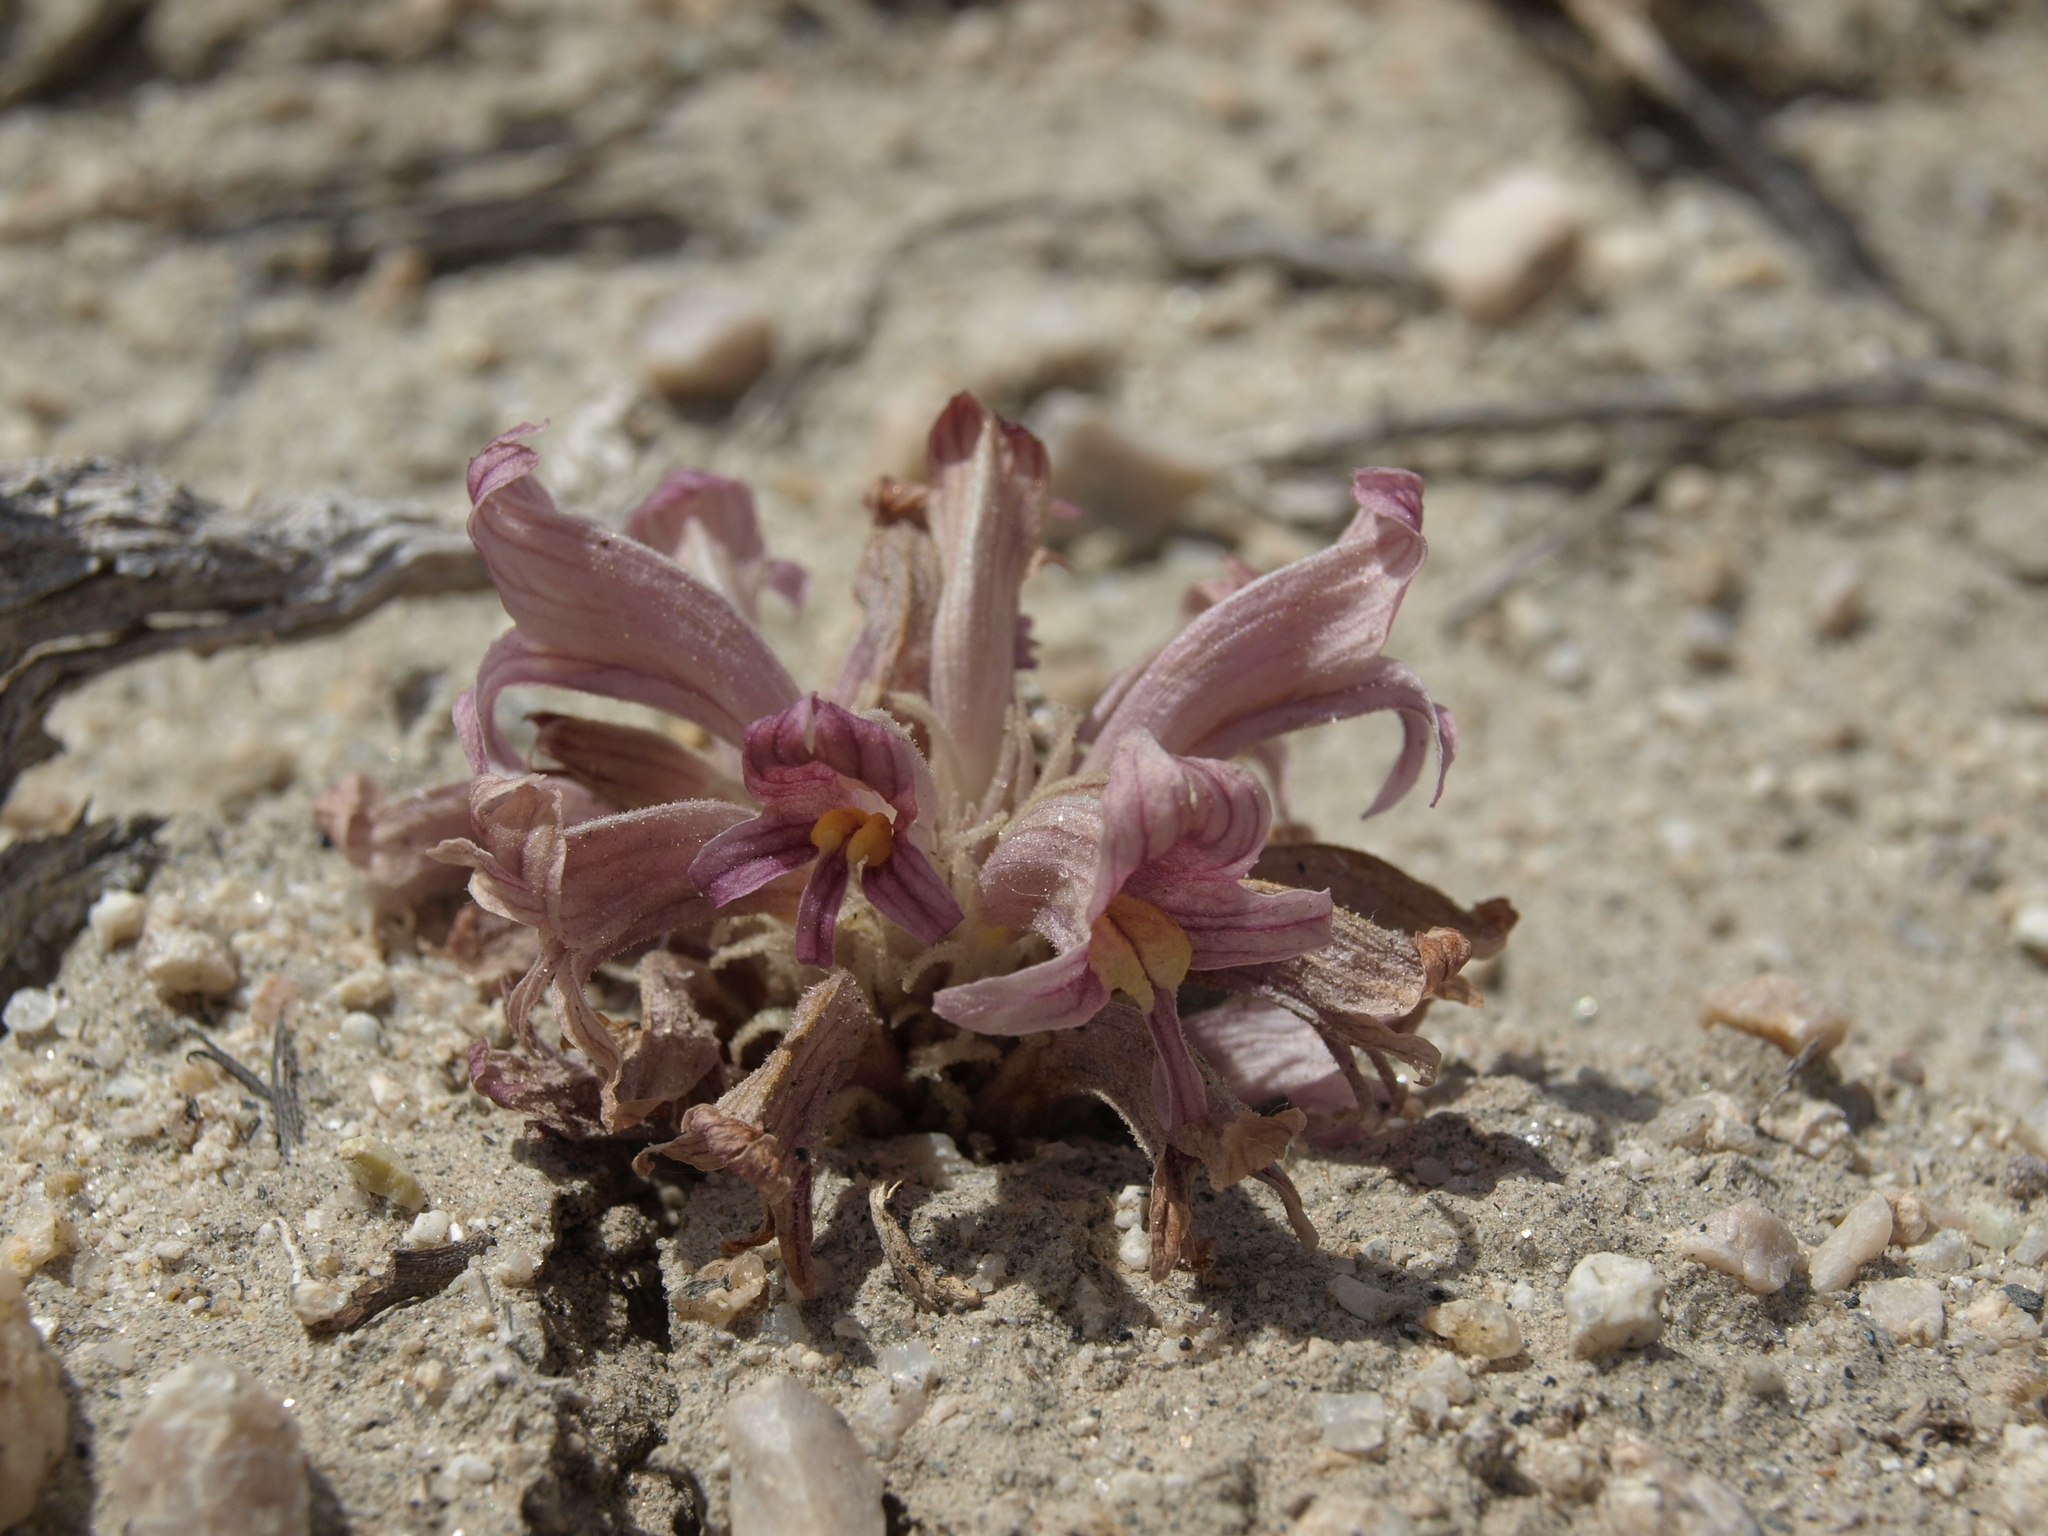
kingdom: Plantae
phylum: Tracheophyta
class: Magnoliopsida
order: Lamiales
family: Orobanchaceae
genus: Aphyllon
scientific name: Aphyllon corymbosum
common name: Flat-top broomrape
